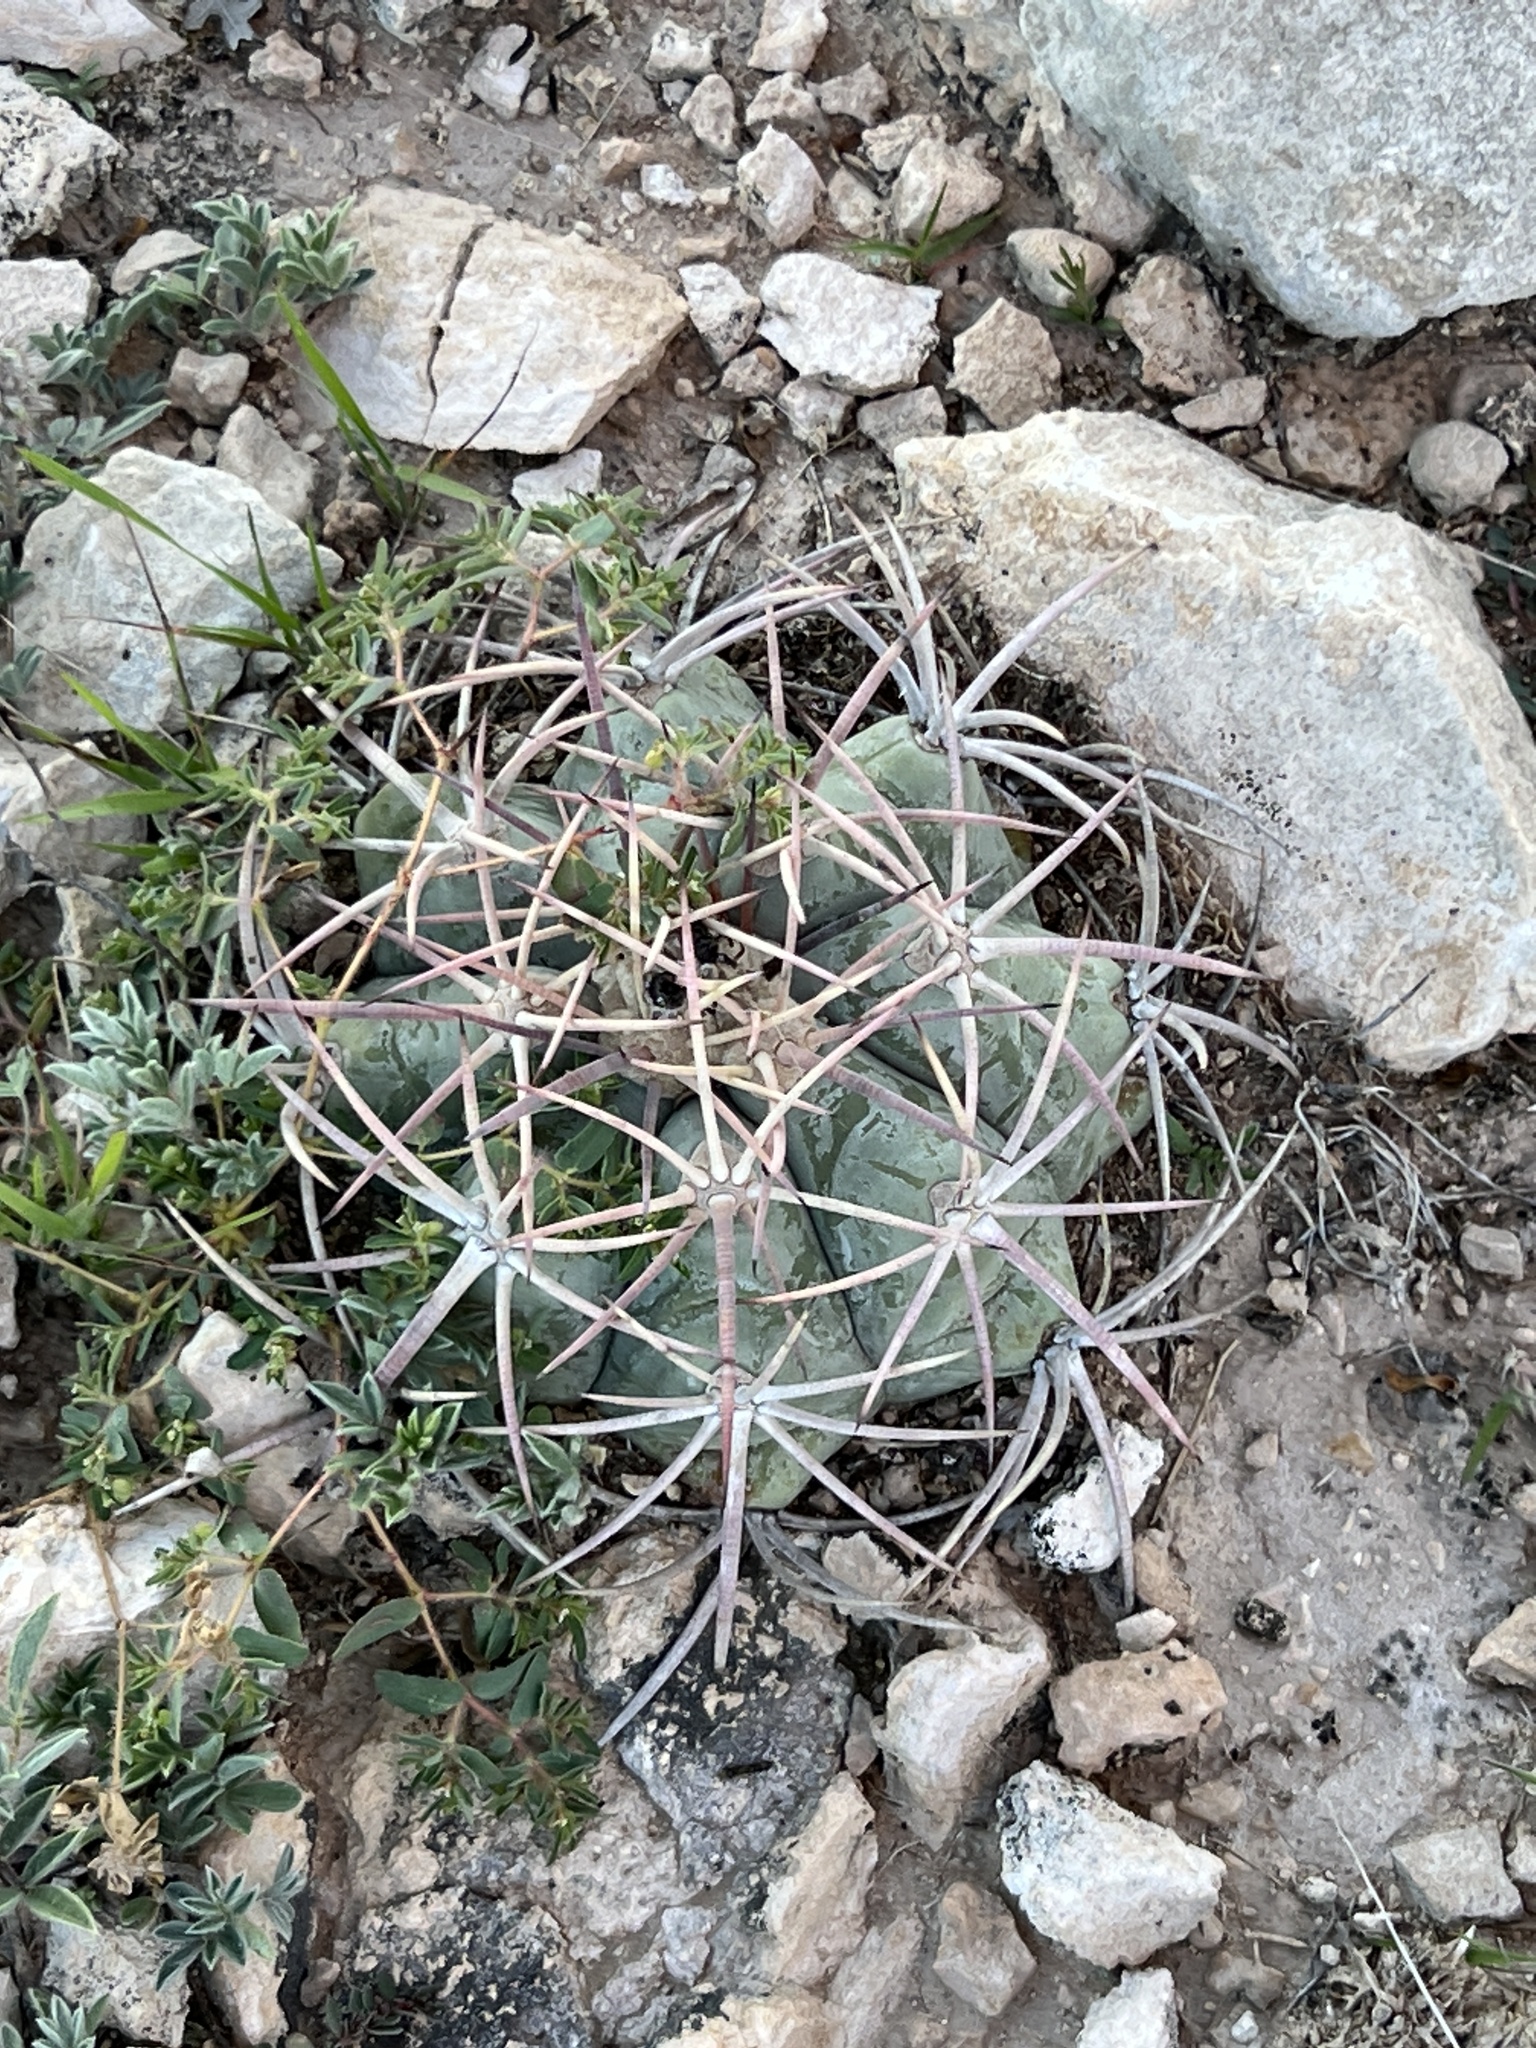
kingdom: Plantae
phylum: Tracheophyta
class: Magnoliopsida
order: Caryophyllales
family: Cactaceae
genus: Echinocactus
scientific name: Echinocactus horizonthalonius
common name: Devilshead
